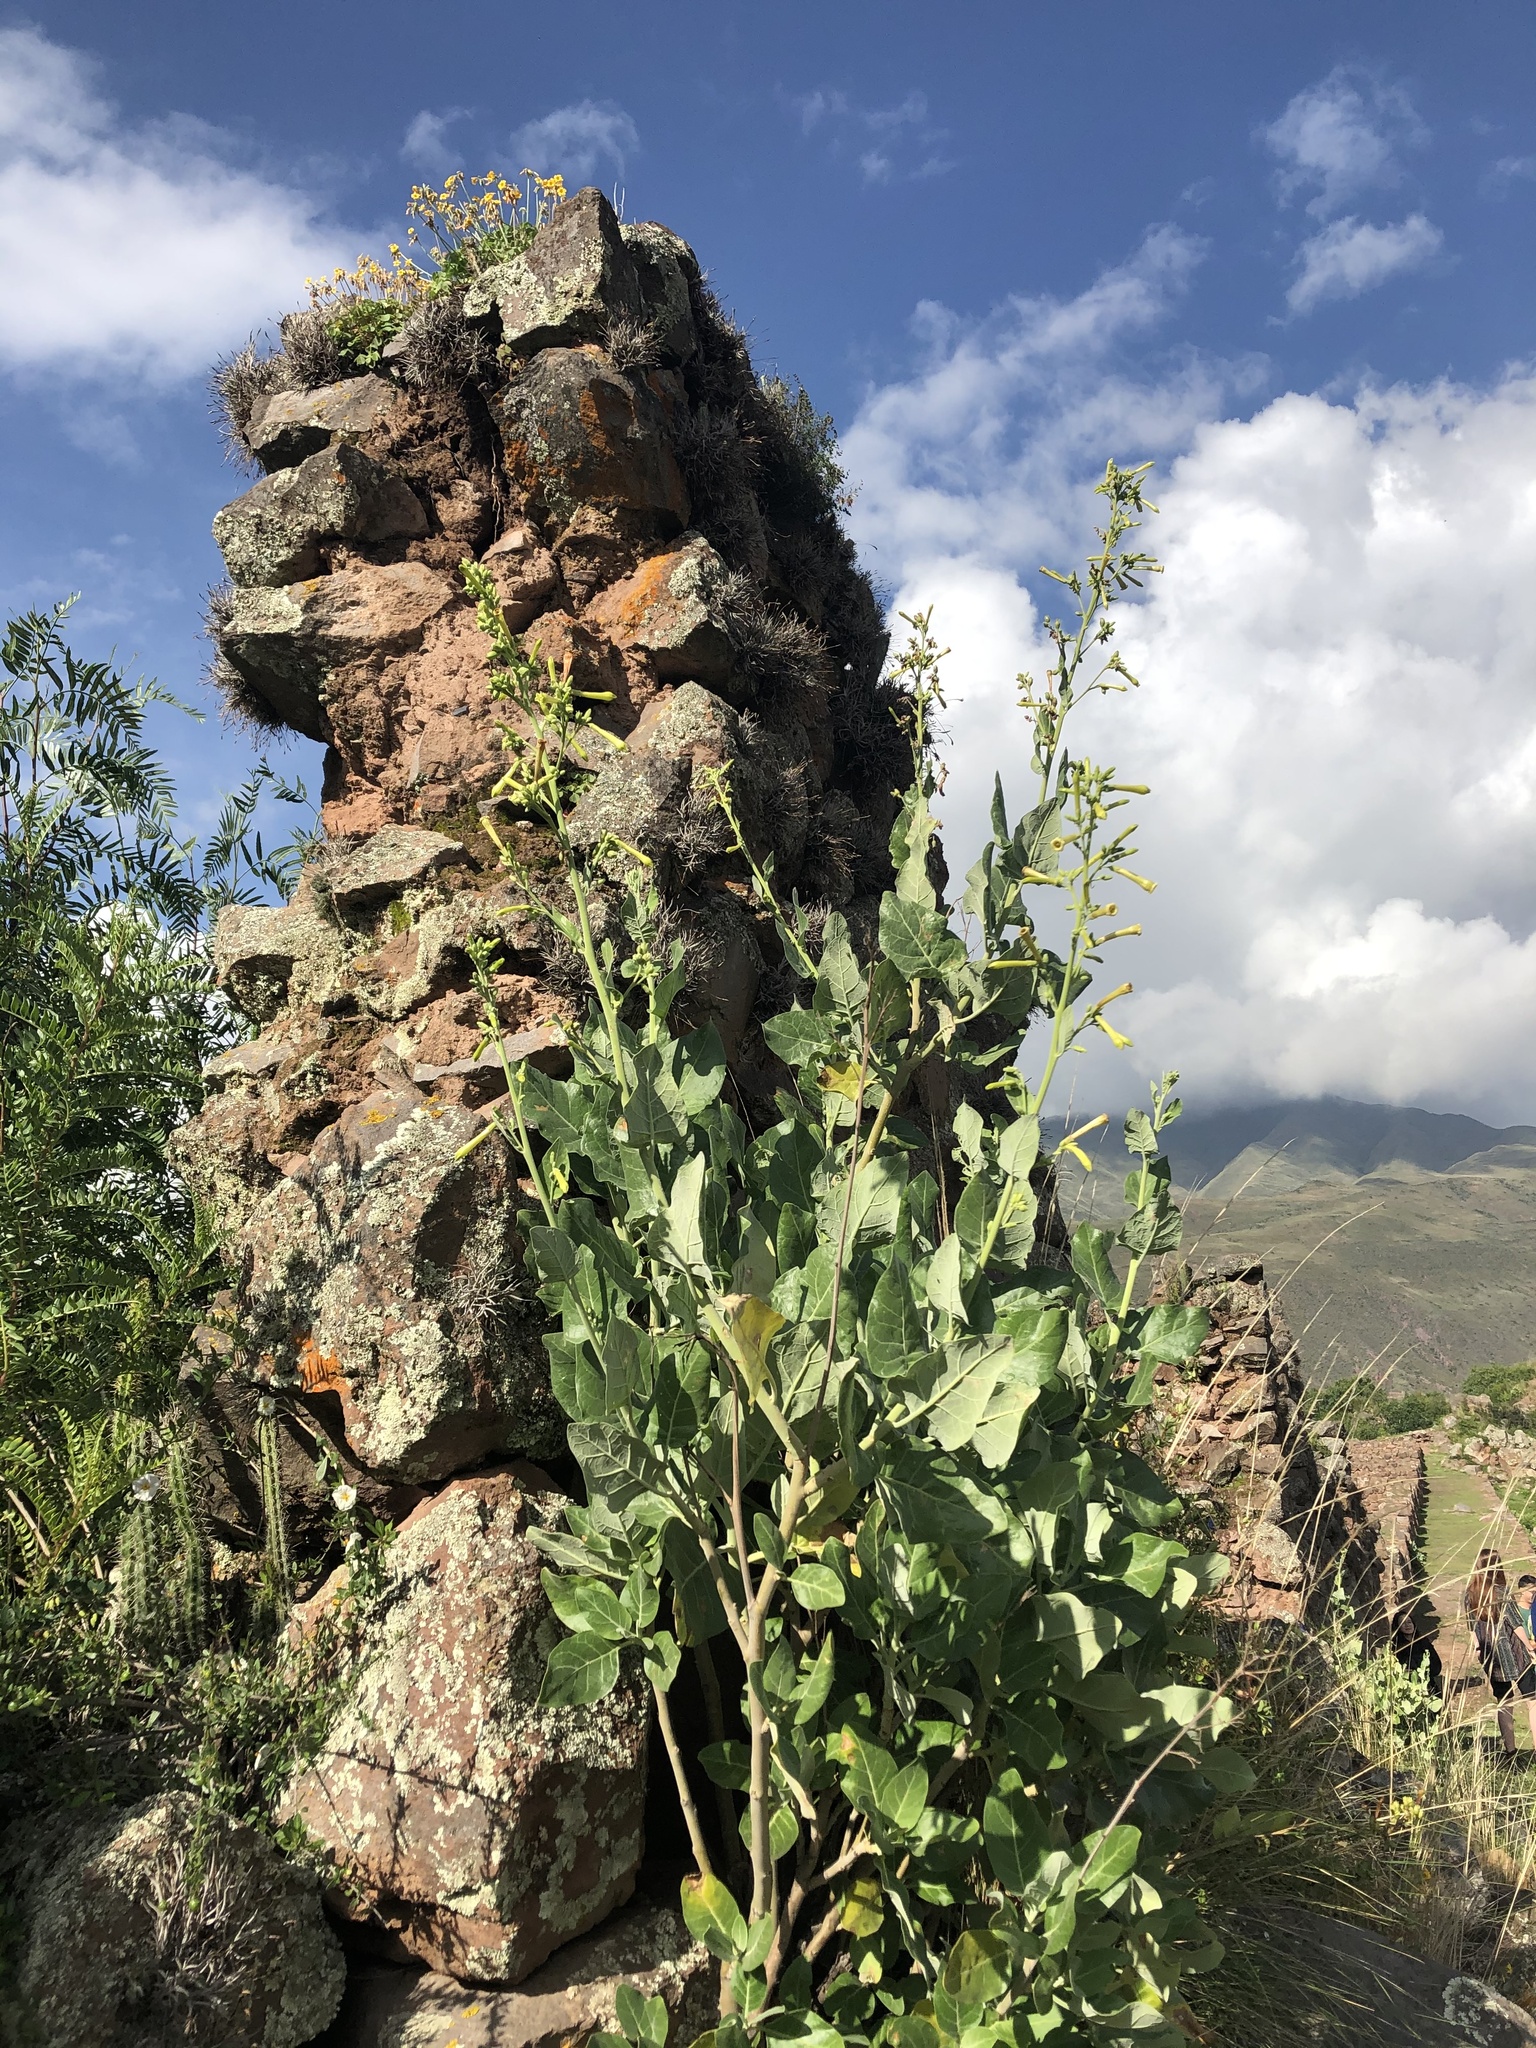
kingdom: Plantae
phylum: Tracheophyta
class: Magnoliopsida
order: Solanales
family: Solanaceae
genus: Nicotiana
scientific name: Nicotiana solanifolia
